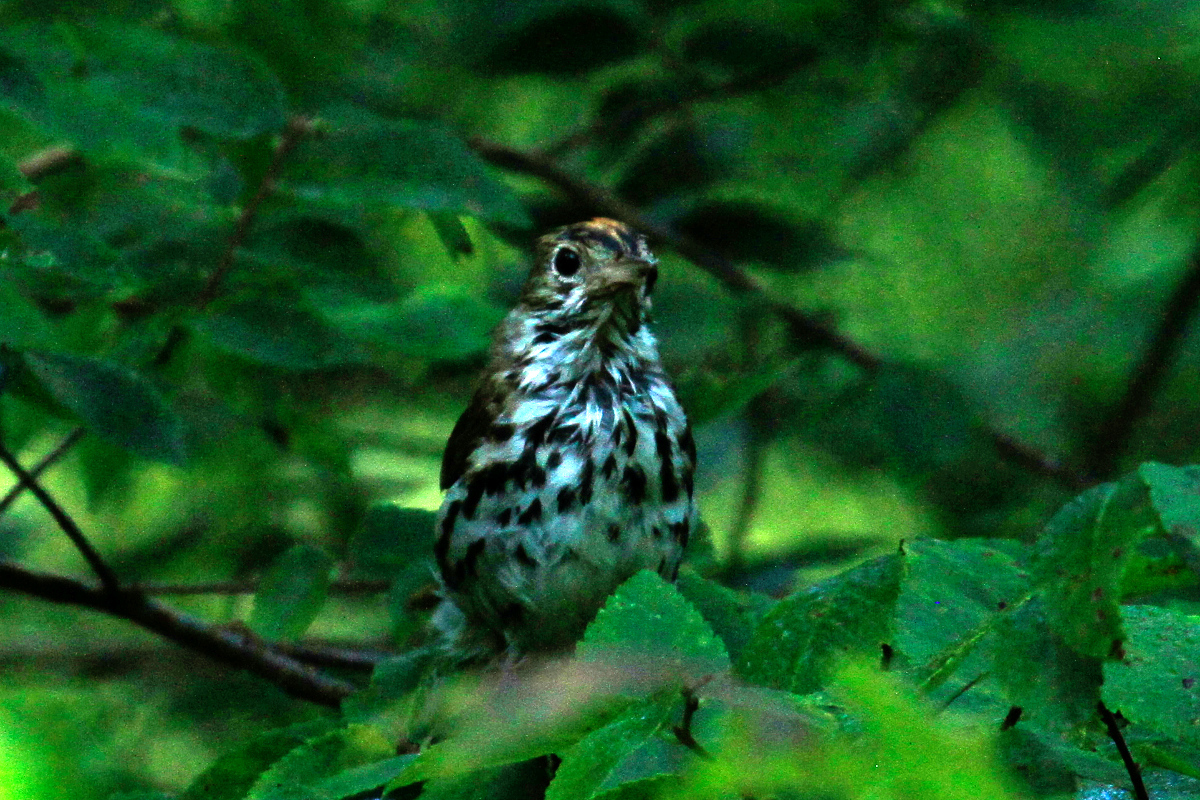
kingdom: Animalia
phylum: Chordata
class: Aves
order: Passeriformes
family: Parulidae
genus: Seiurus
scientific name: Seiurus aurocapilla
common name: Ovenbird
